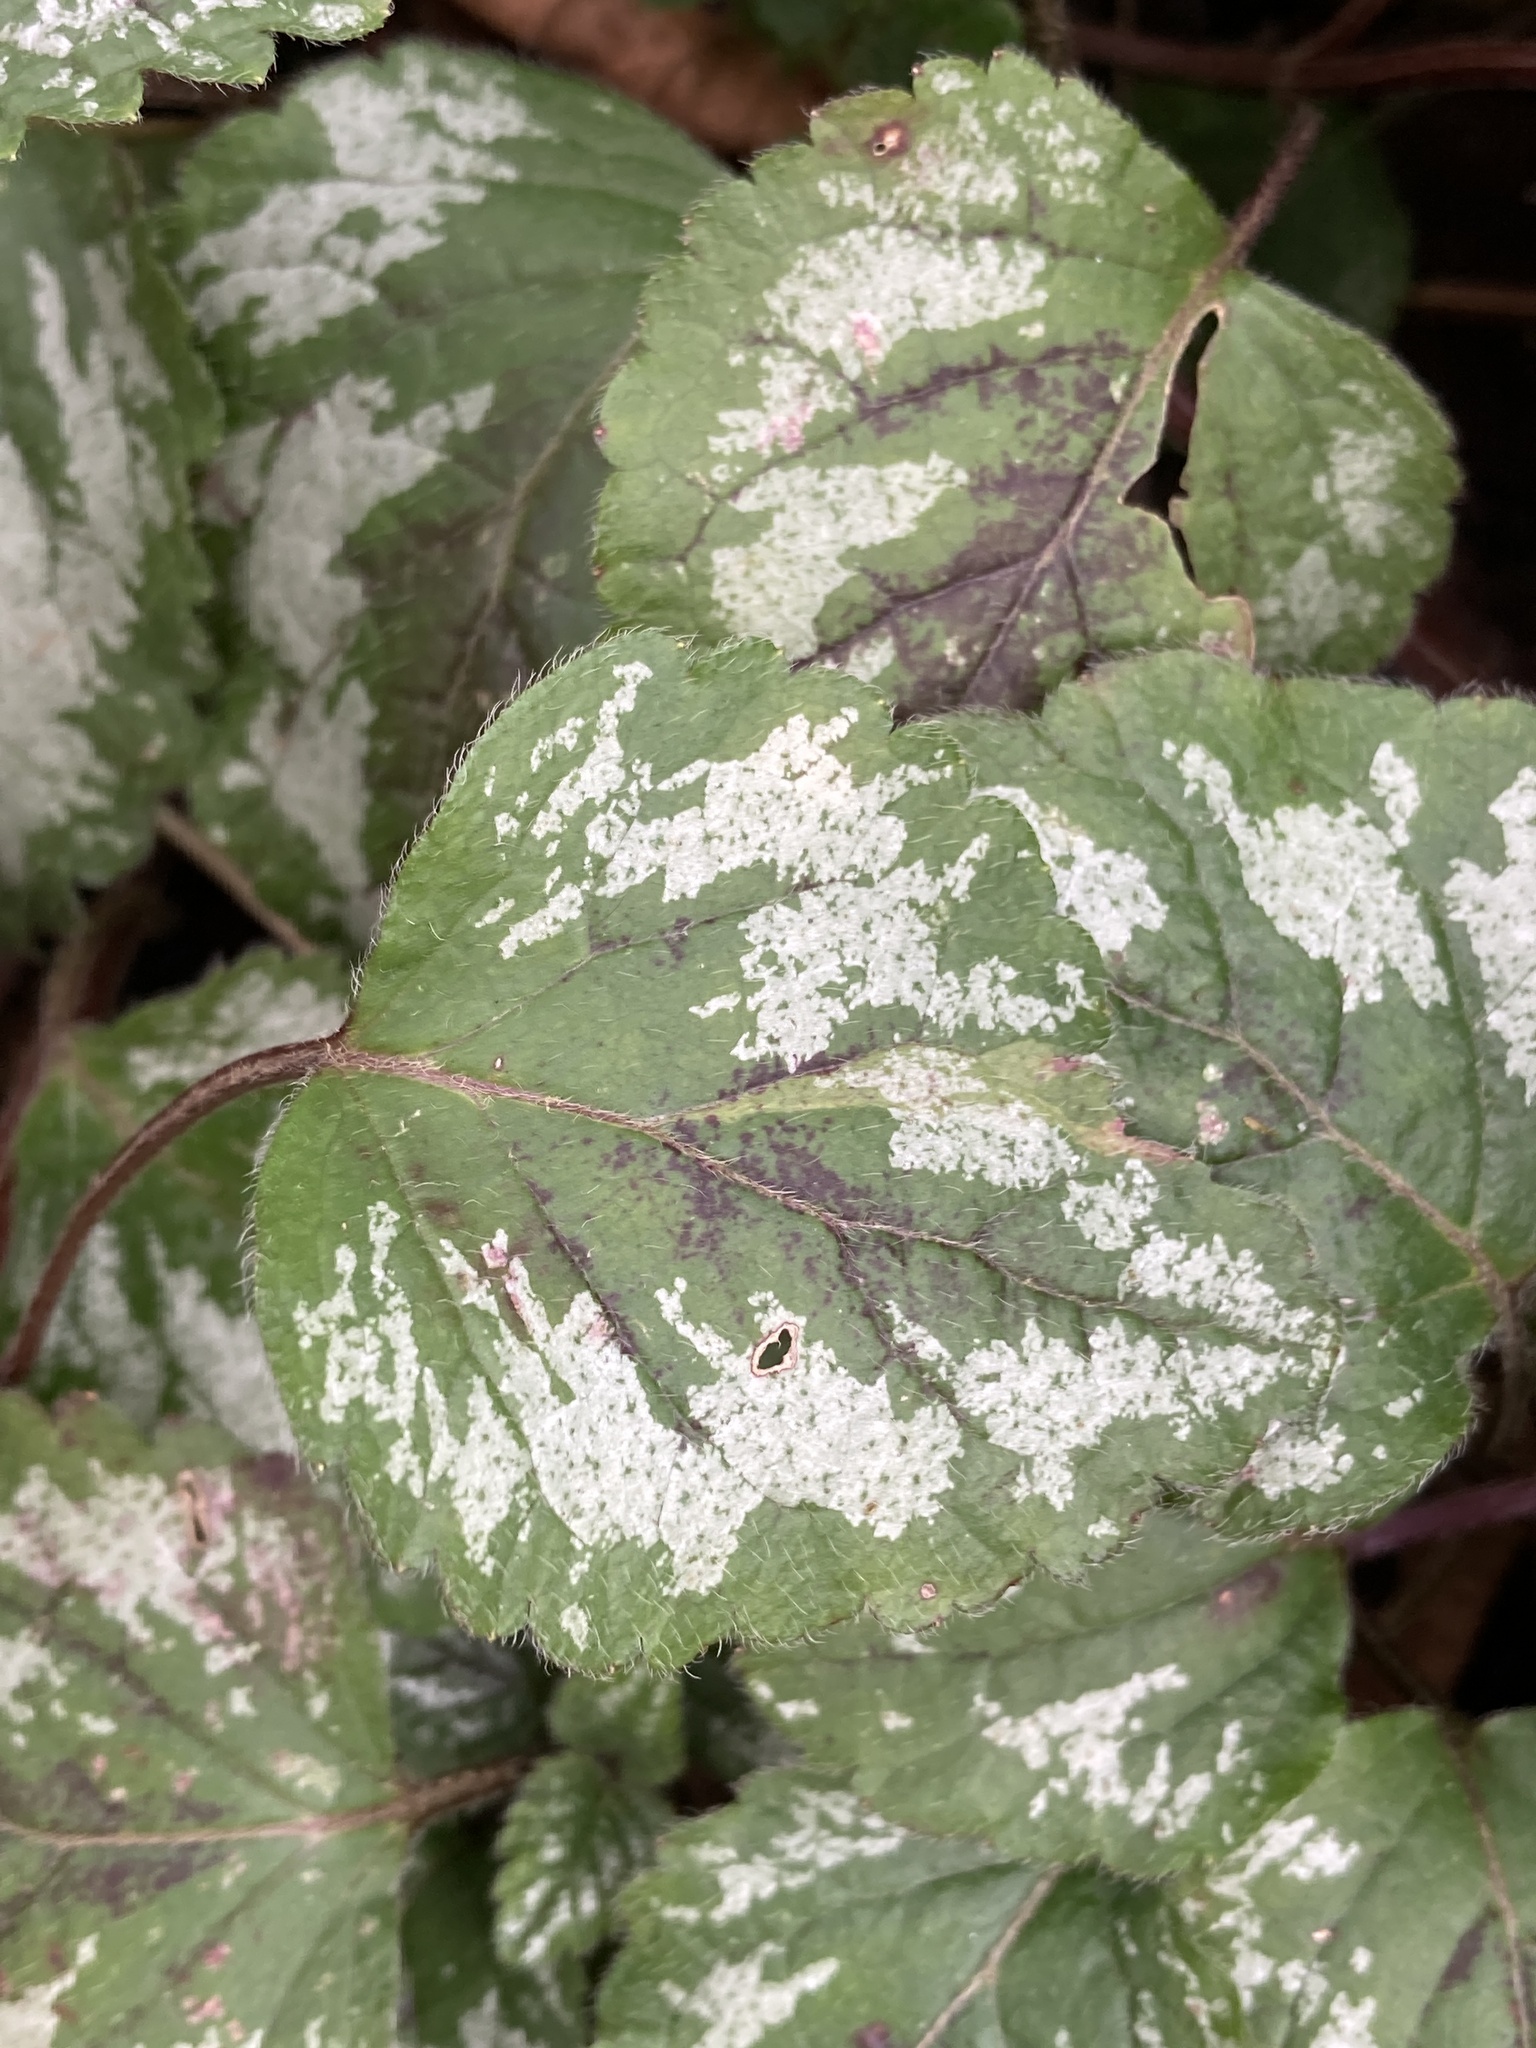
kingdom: Plantae
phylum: Tracheophyta
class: Magnoliopsida
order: Lamiales
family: Lamiaceae
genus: Lamium
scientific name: Lamium galeobdolon
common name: Yellow archangel
